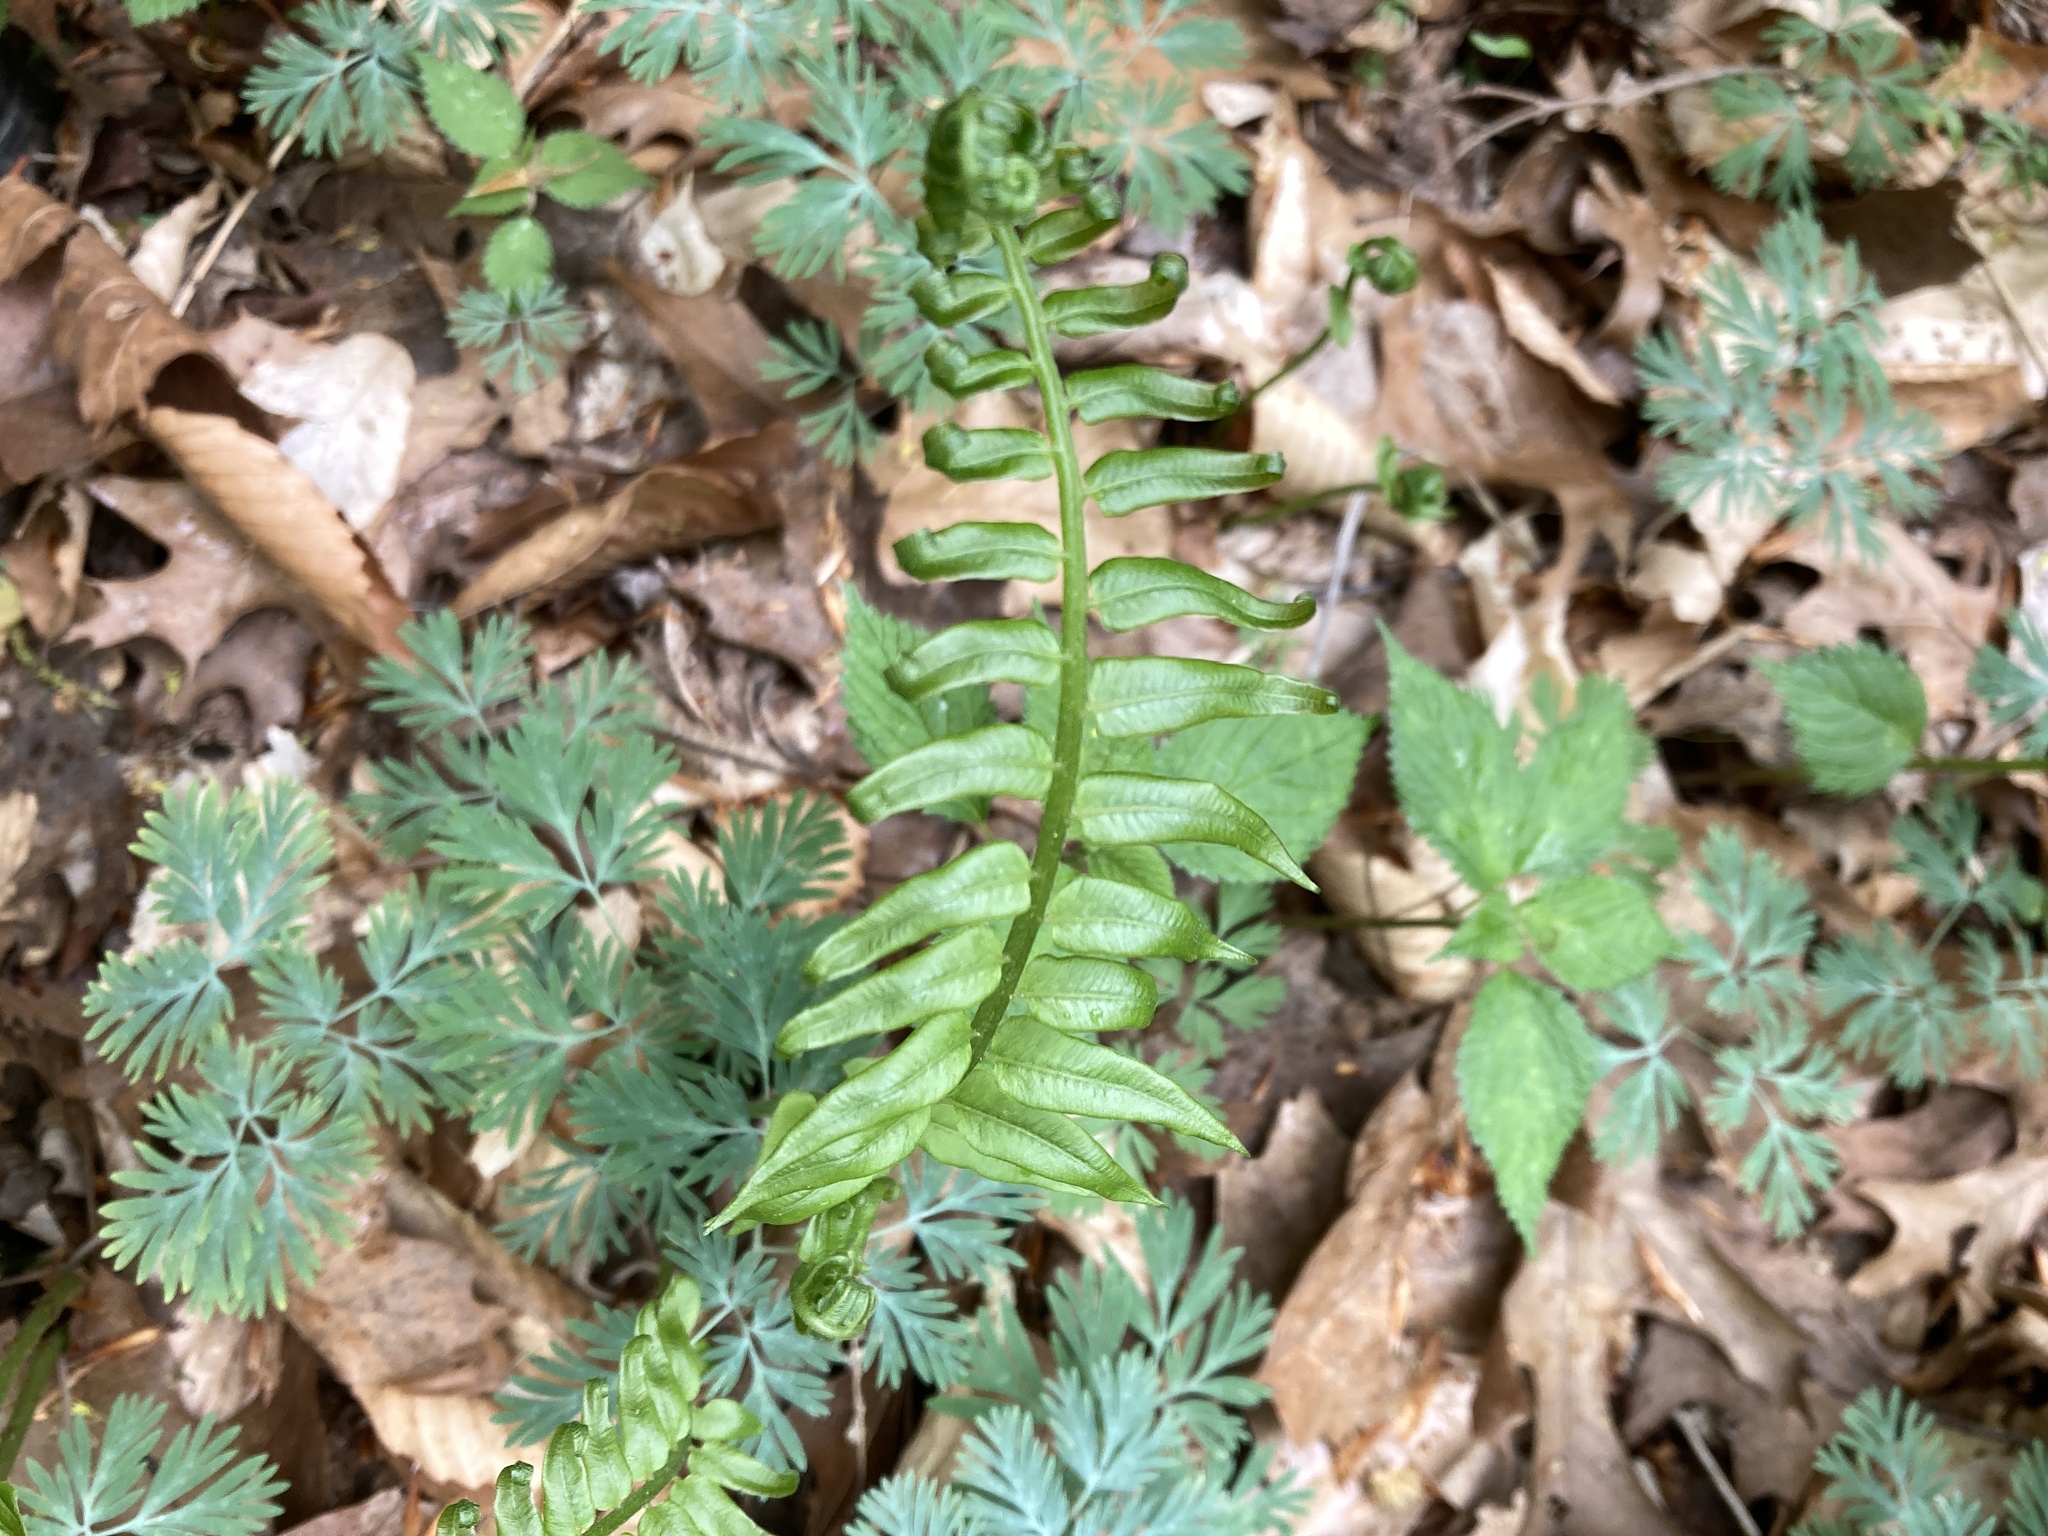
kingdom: Plantae
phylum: Tracheophyta
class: Polypodiopsida
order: Polypodiales
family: Diplaziopsidaceae
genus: Homalosorus
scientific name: Homalosorus pycnocarpos
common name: Glade fern
